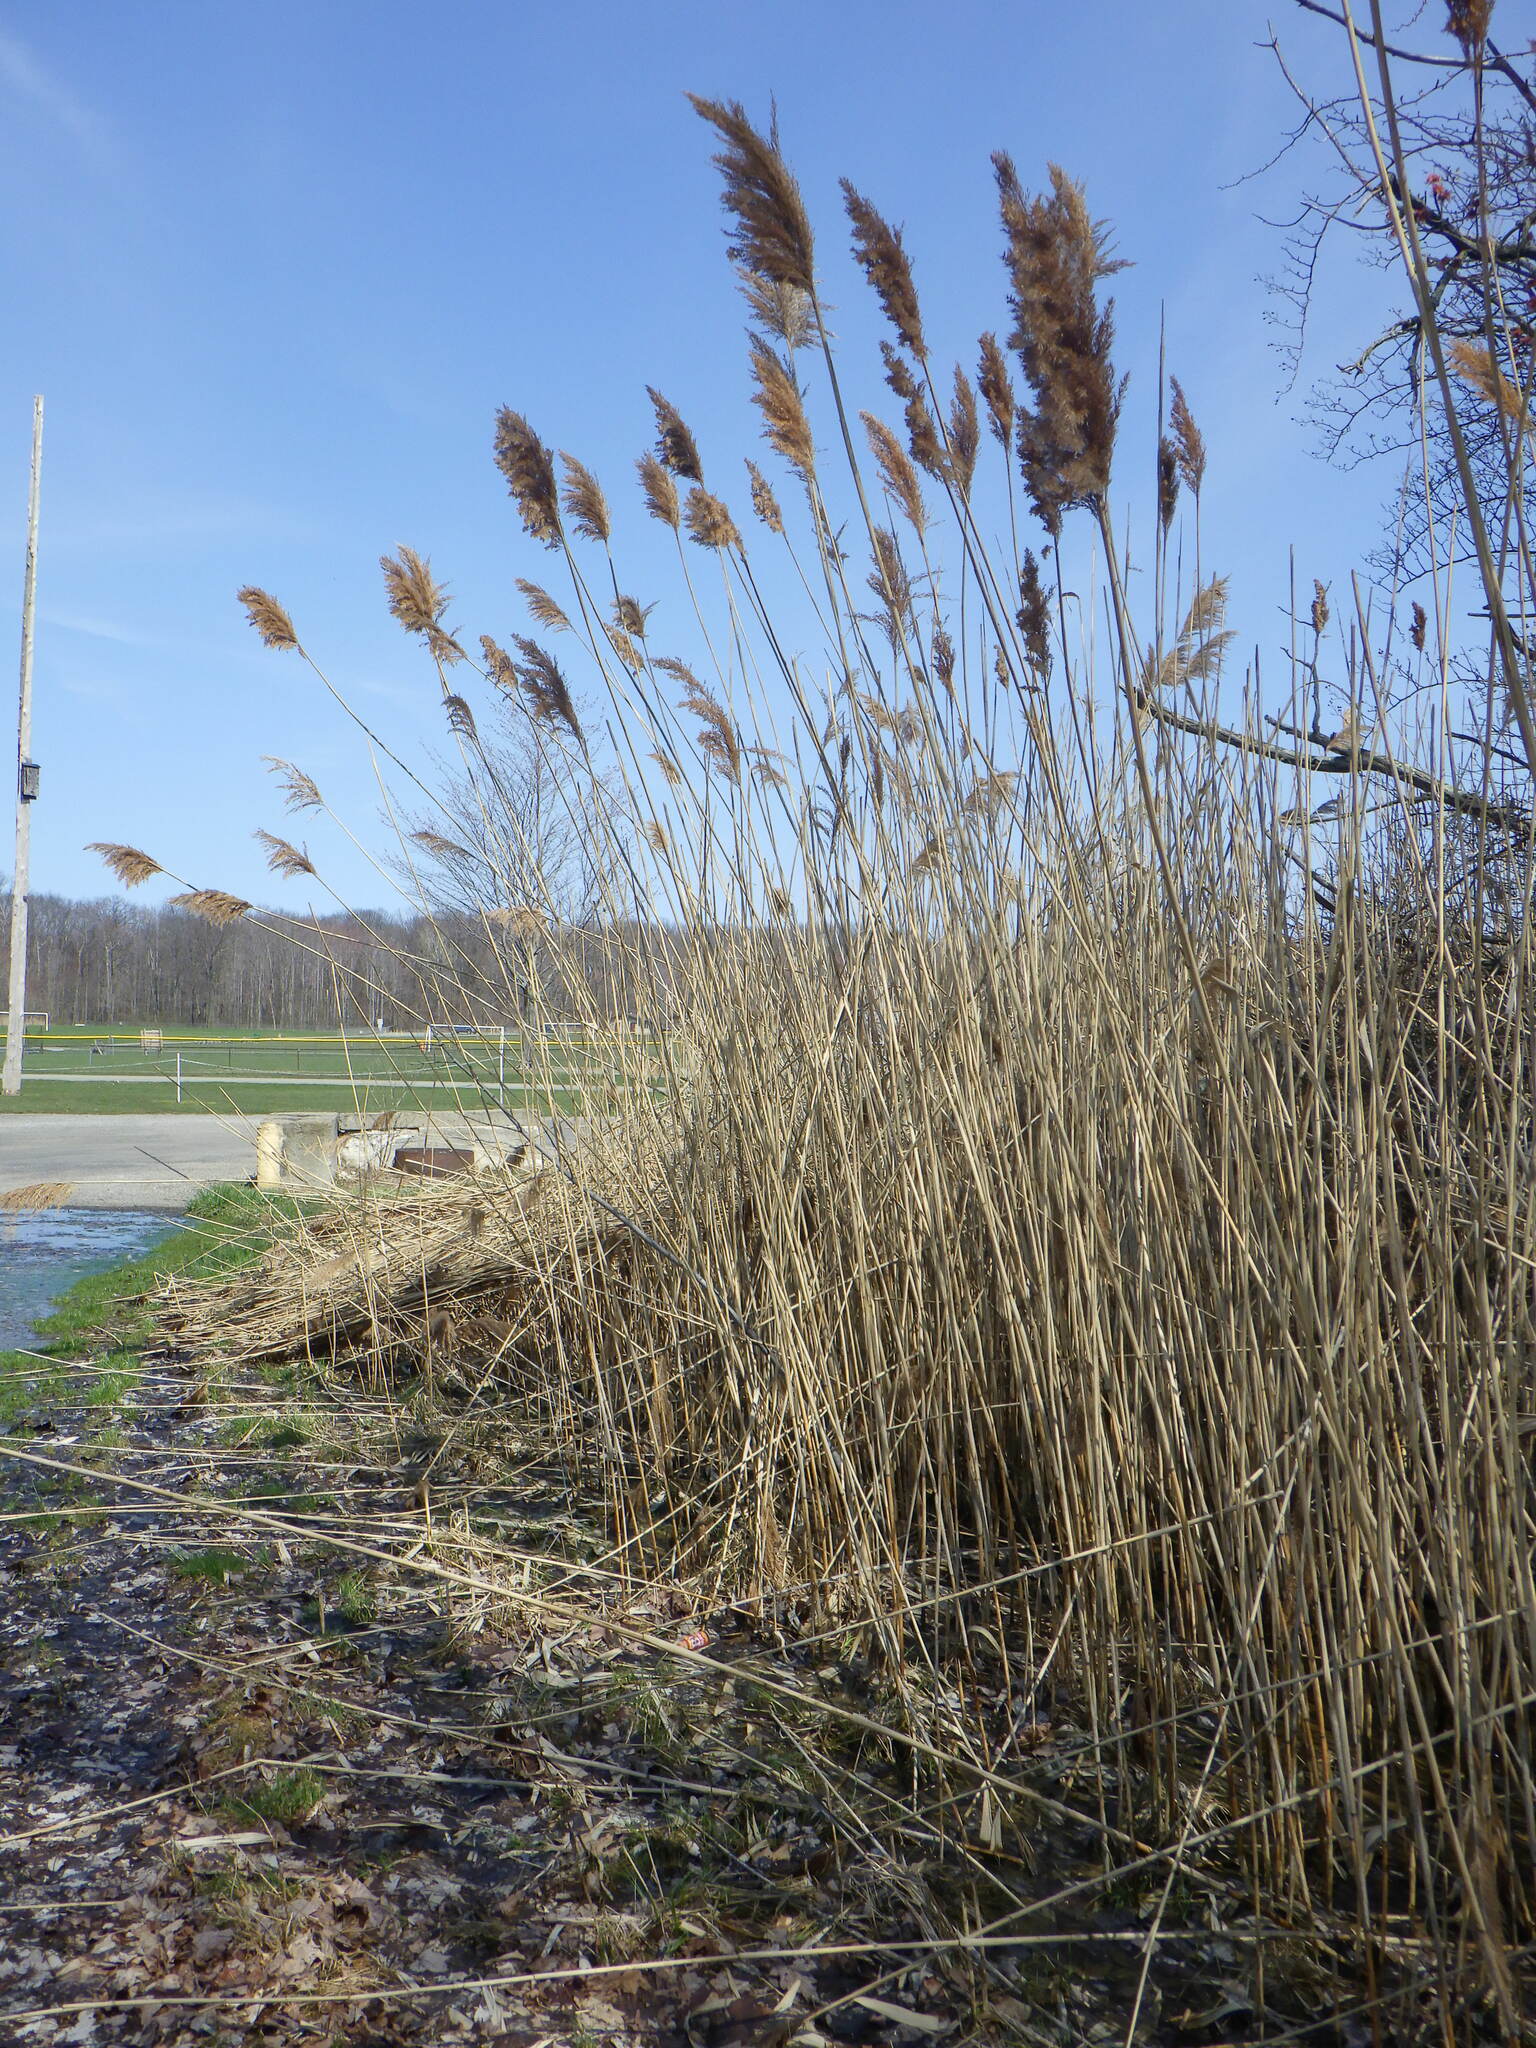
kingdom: Plantae
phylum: Tracheophyta
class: Liliopsida
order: Poales
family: Poaceae
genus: Phragmites
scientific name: Phragmites australis
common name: Common reed
